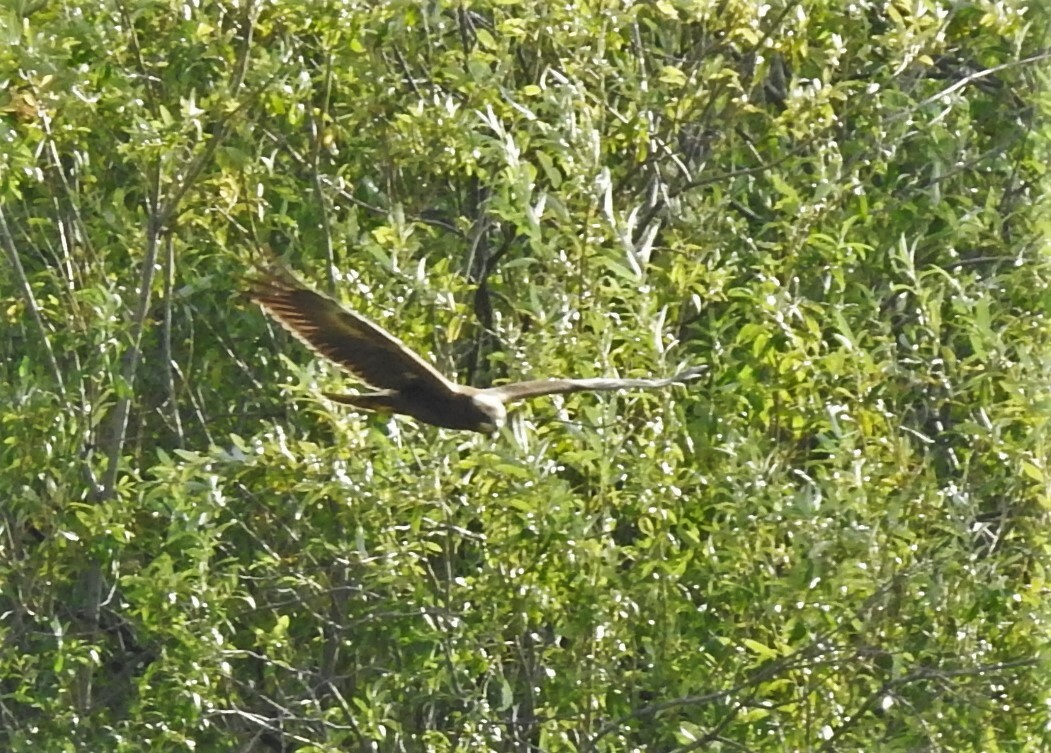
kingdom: Animalia
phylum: Chordata
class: Aves
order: Accipitriformes
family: Accipitridae
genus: Circus
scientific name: Circus aeruginosus
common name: Western marsh harrier
